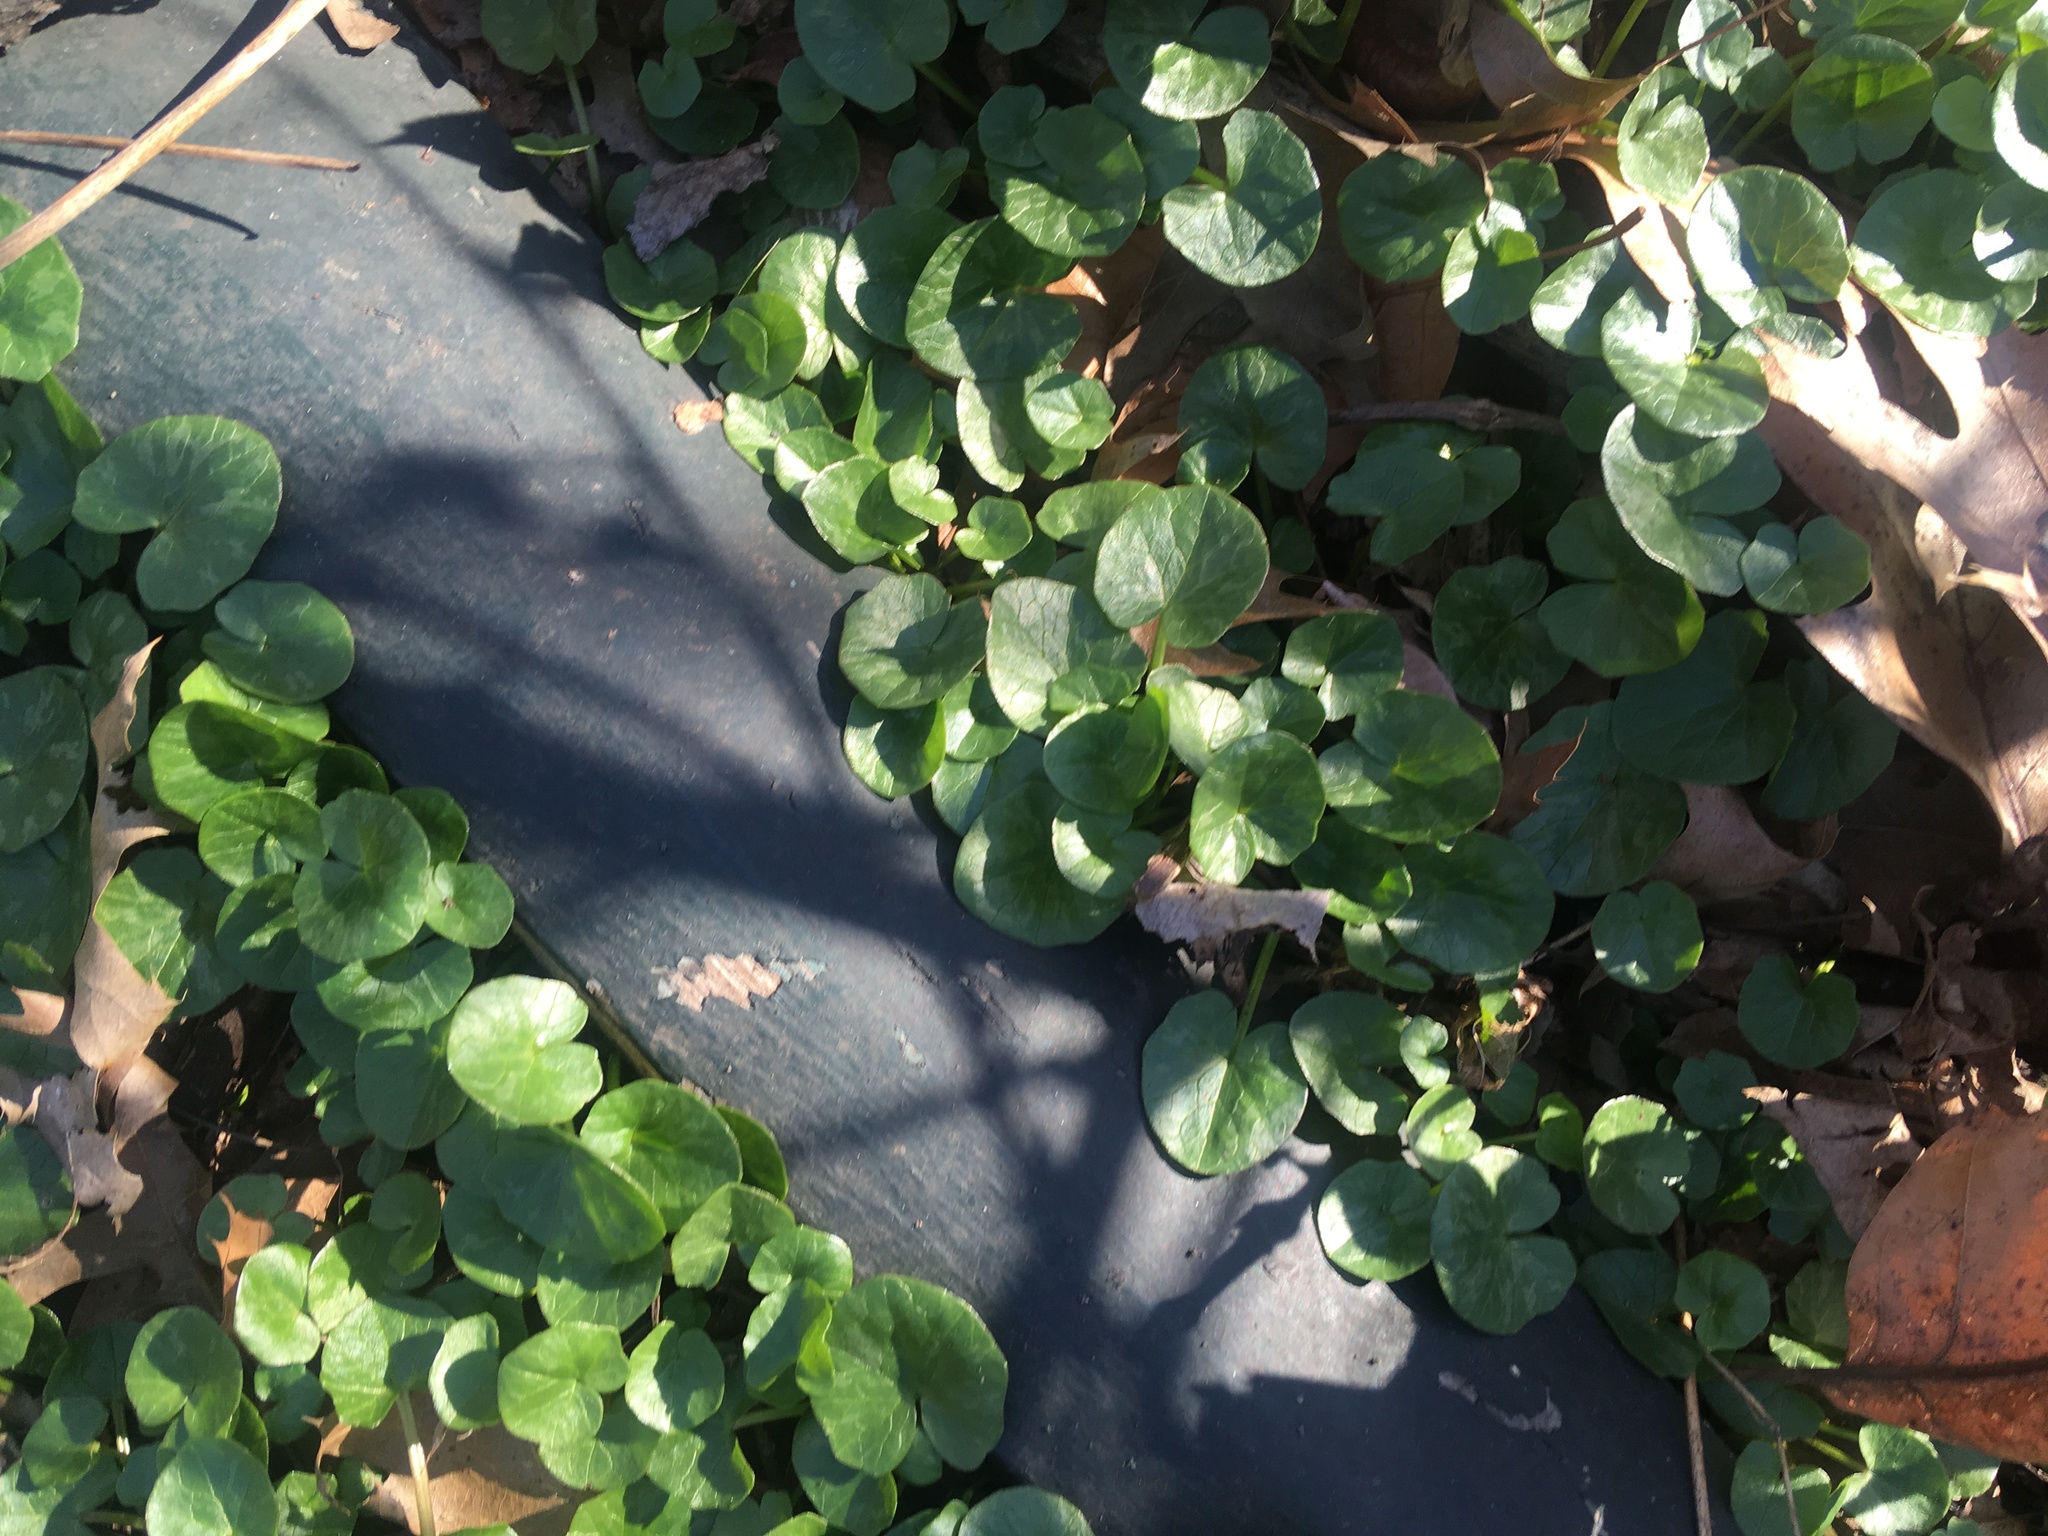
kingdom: Plantae
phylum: Tracheophyta
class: Magnoliopsida
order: Ranunculales
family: Ranunculaceae
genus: Ficaria
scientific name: Ficaria verna
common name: Lesser celandine
